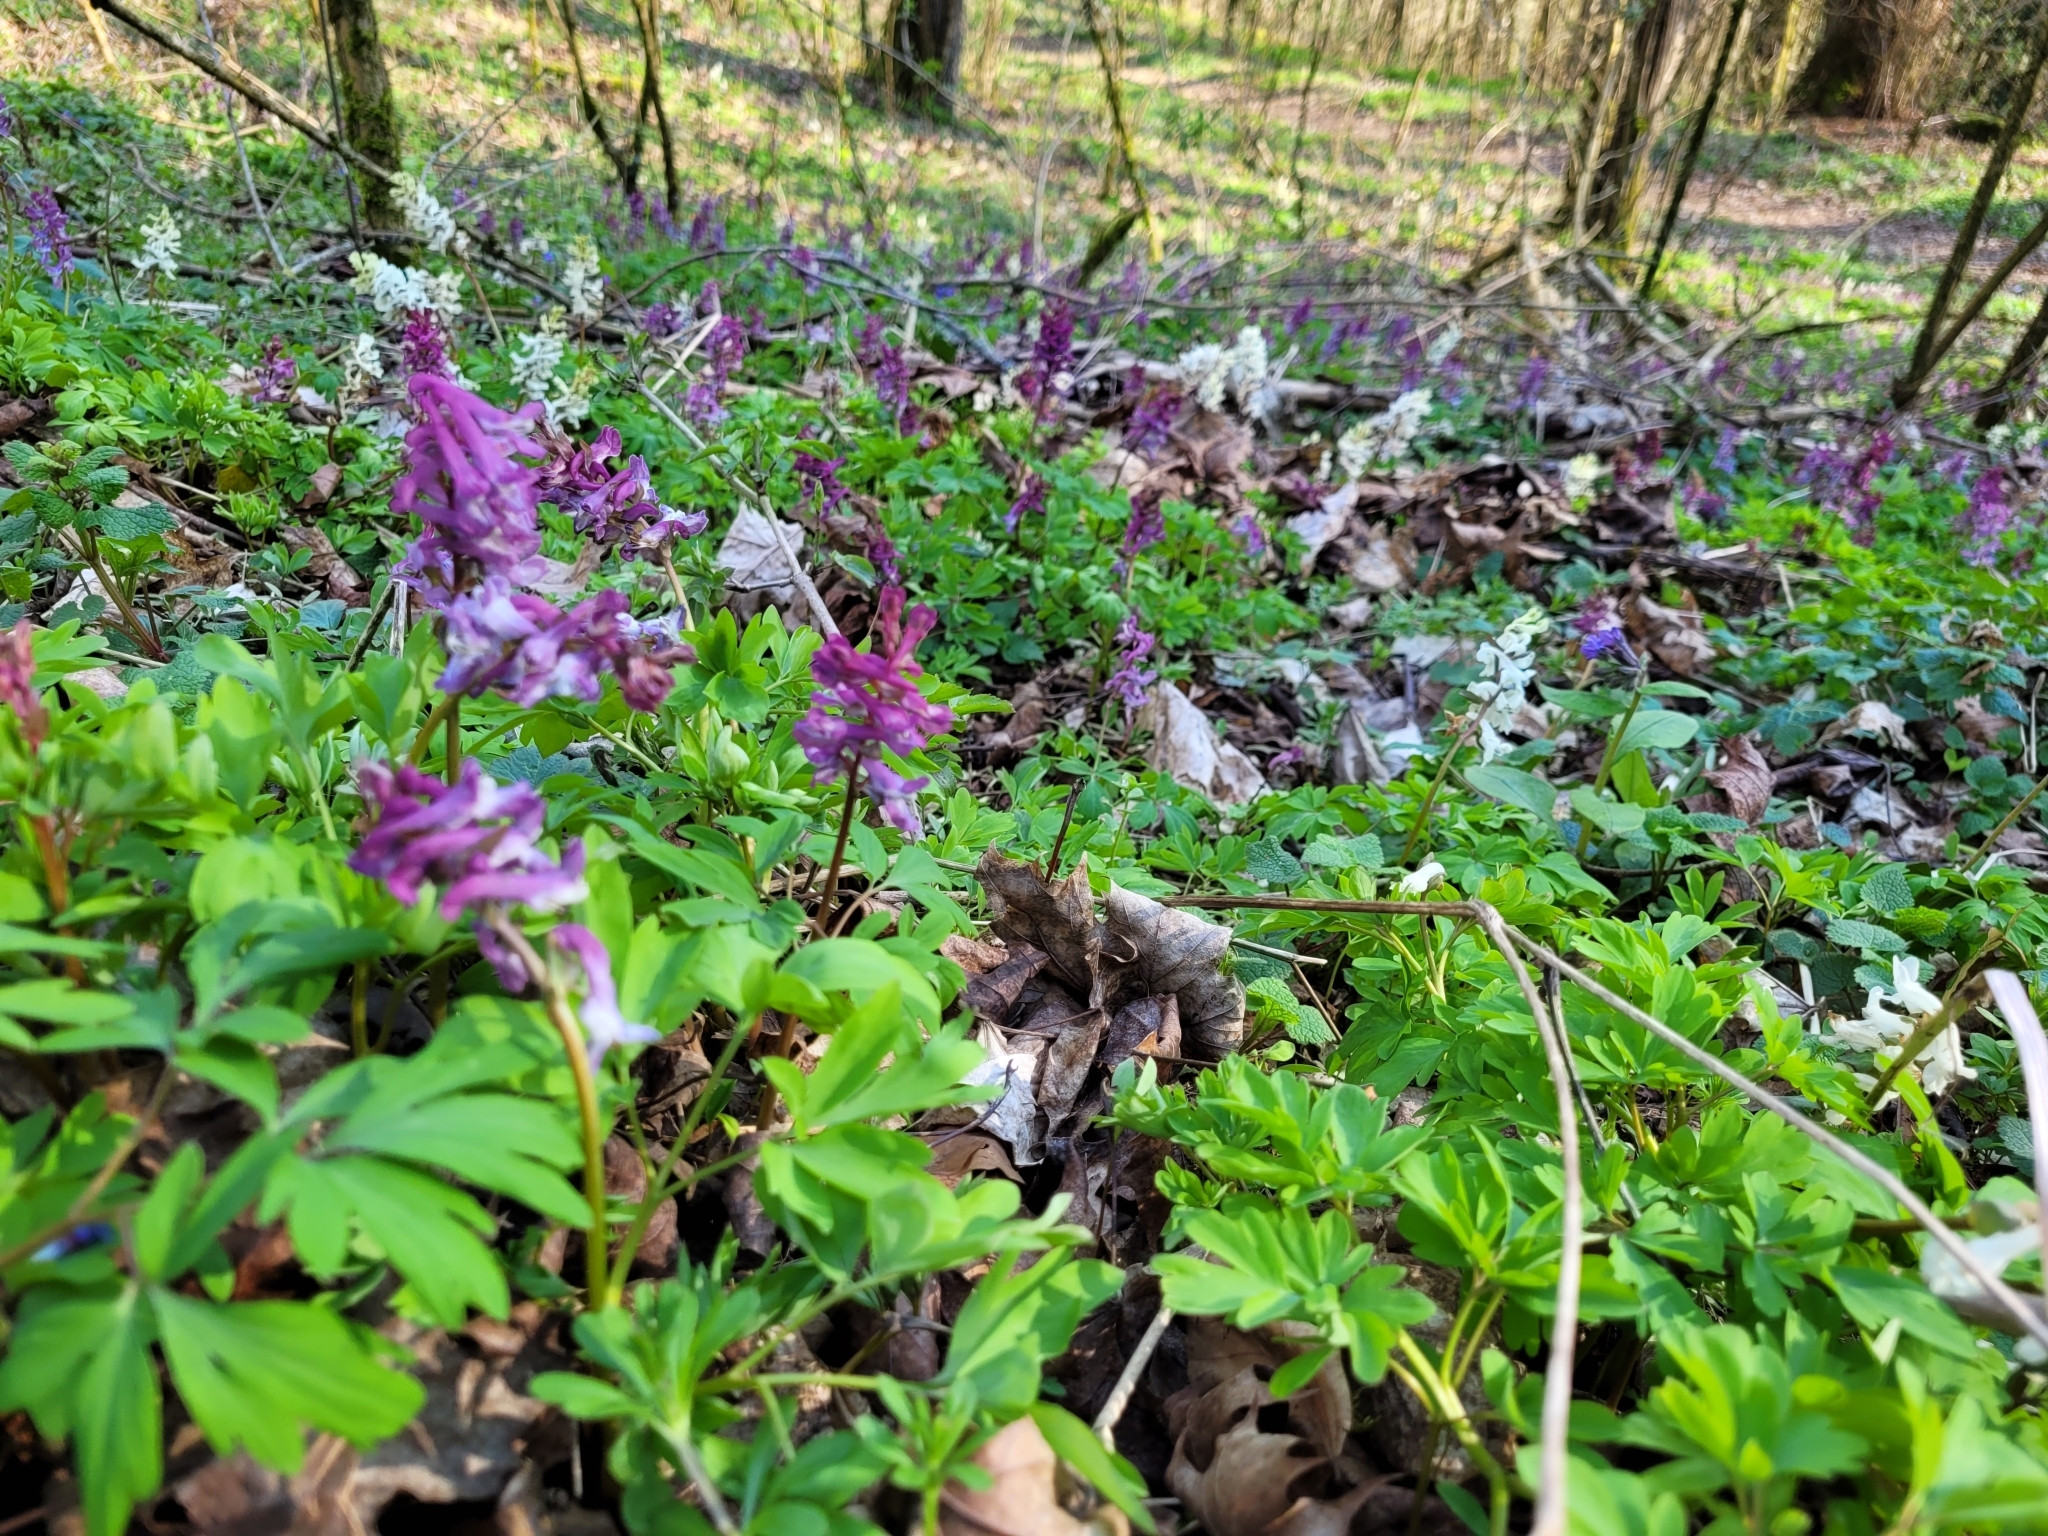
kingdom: Plantae
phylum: Tracheophyta
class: Magnoliopsida
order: Ranunculales
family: Papaveraceae
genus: Corydalis
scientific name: Corydalis cava
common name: Hollowroot
